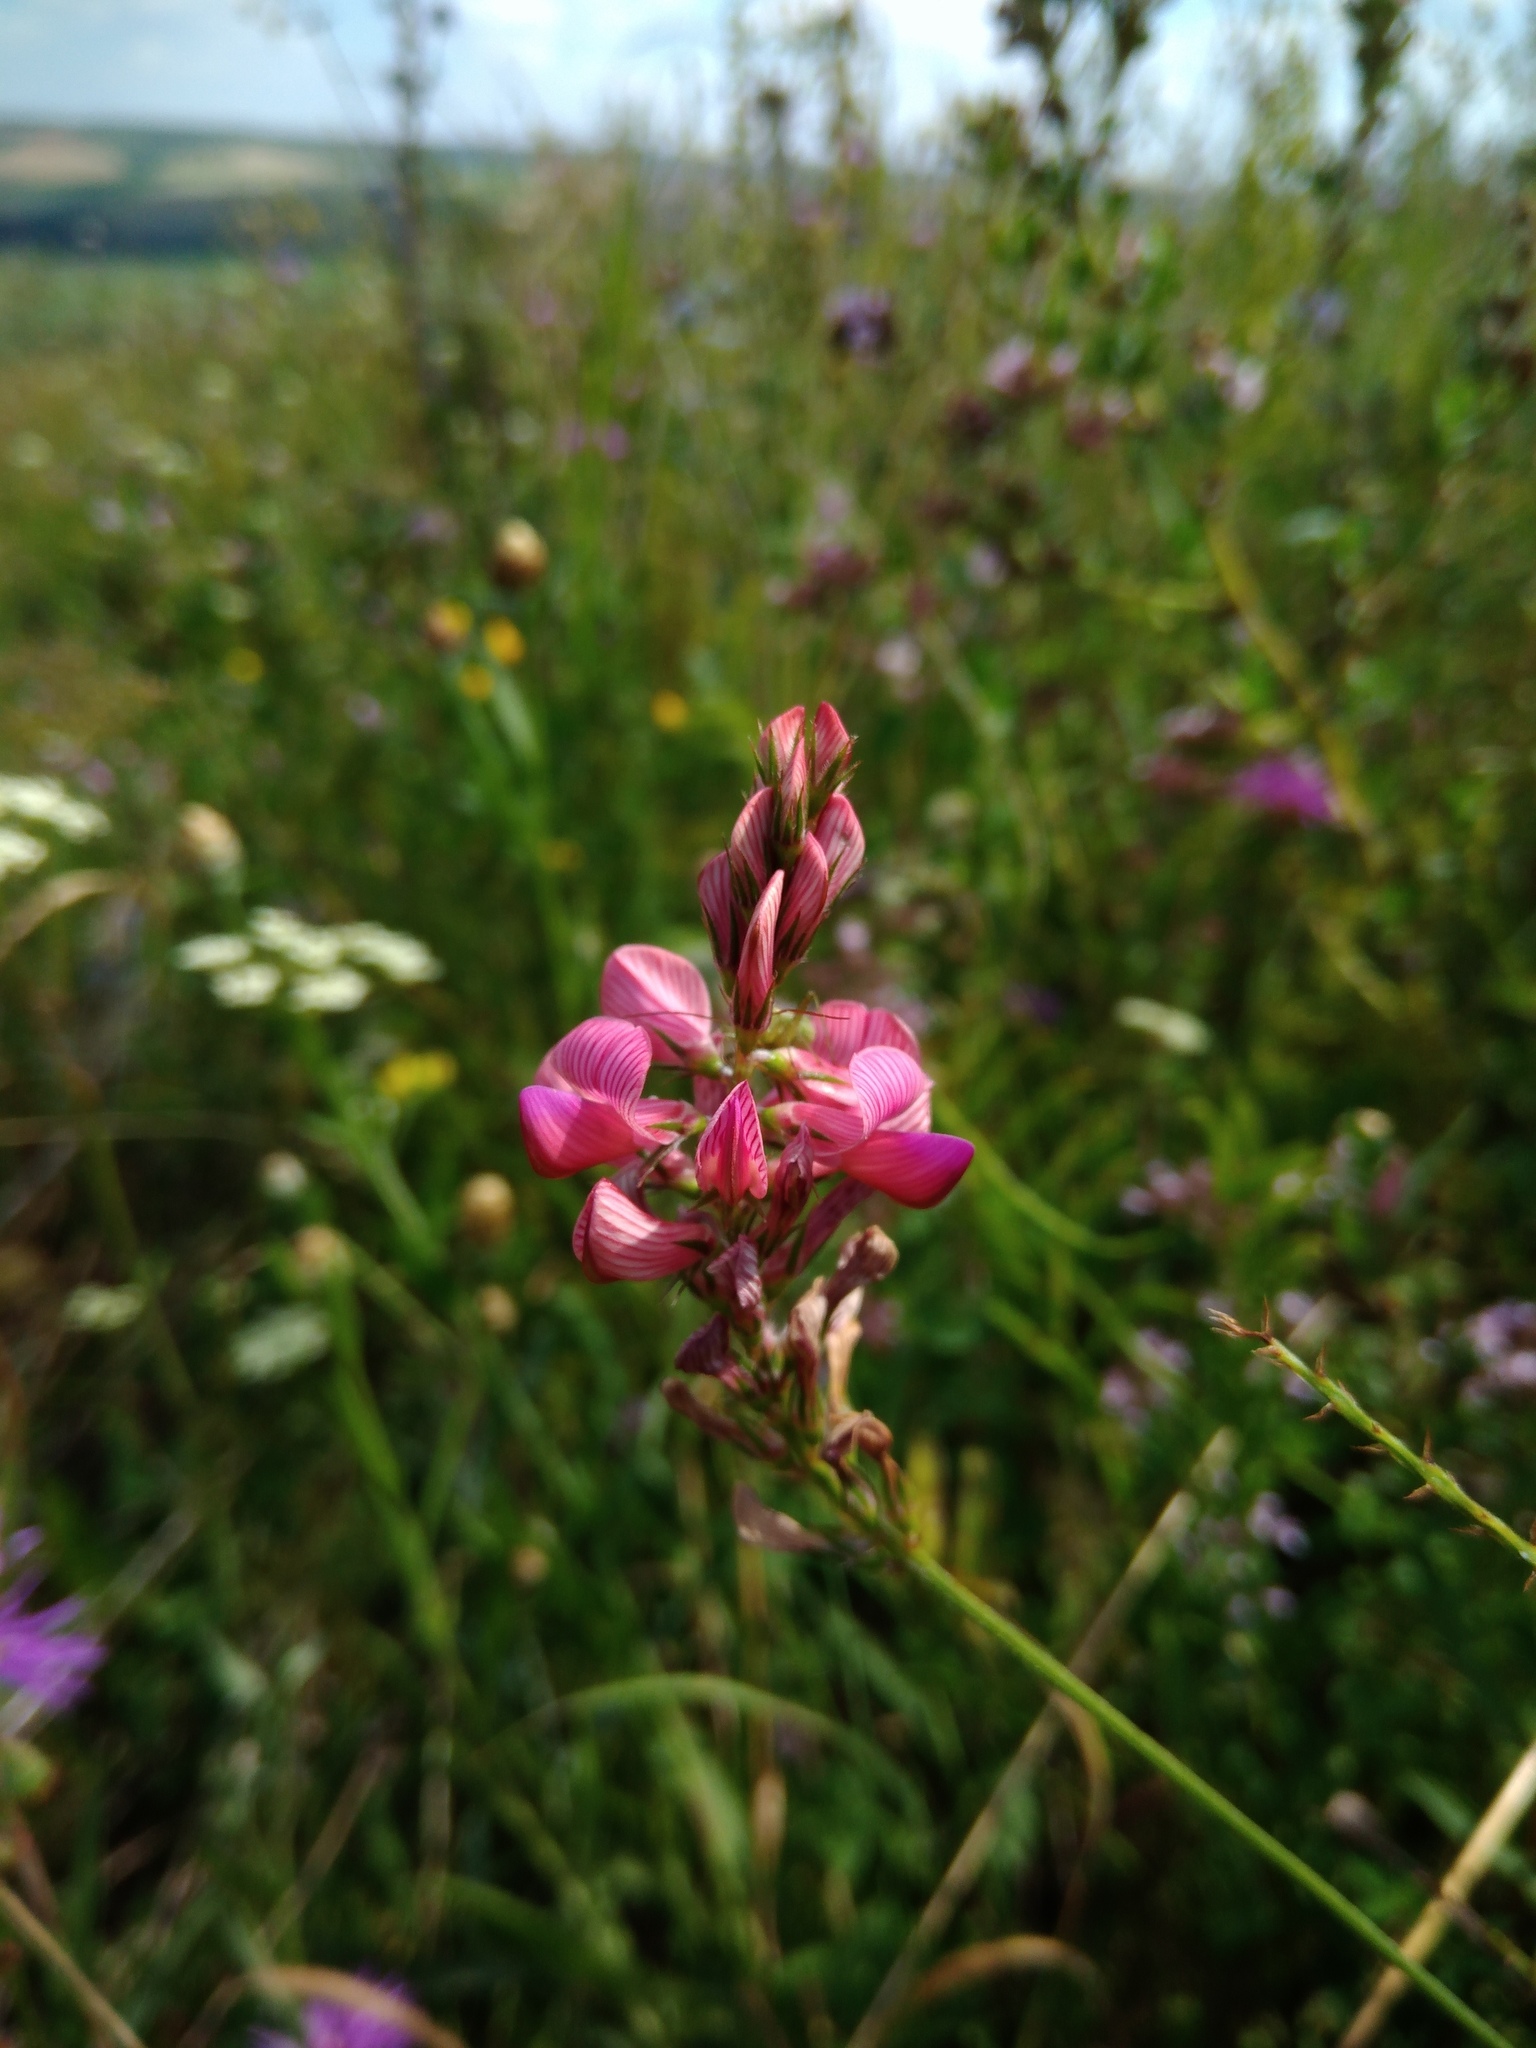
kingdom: Plantae
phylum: Tracheophyta
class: Magnoliopsida
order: Fabales
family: Fabaceae
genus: Onobrychis
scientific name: Onobrychis viciifolia
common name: Sainfoin
